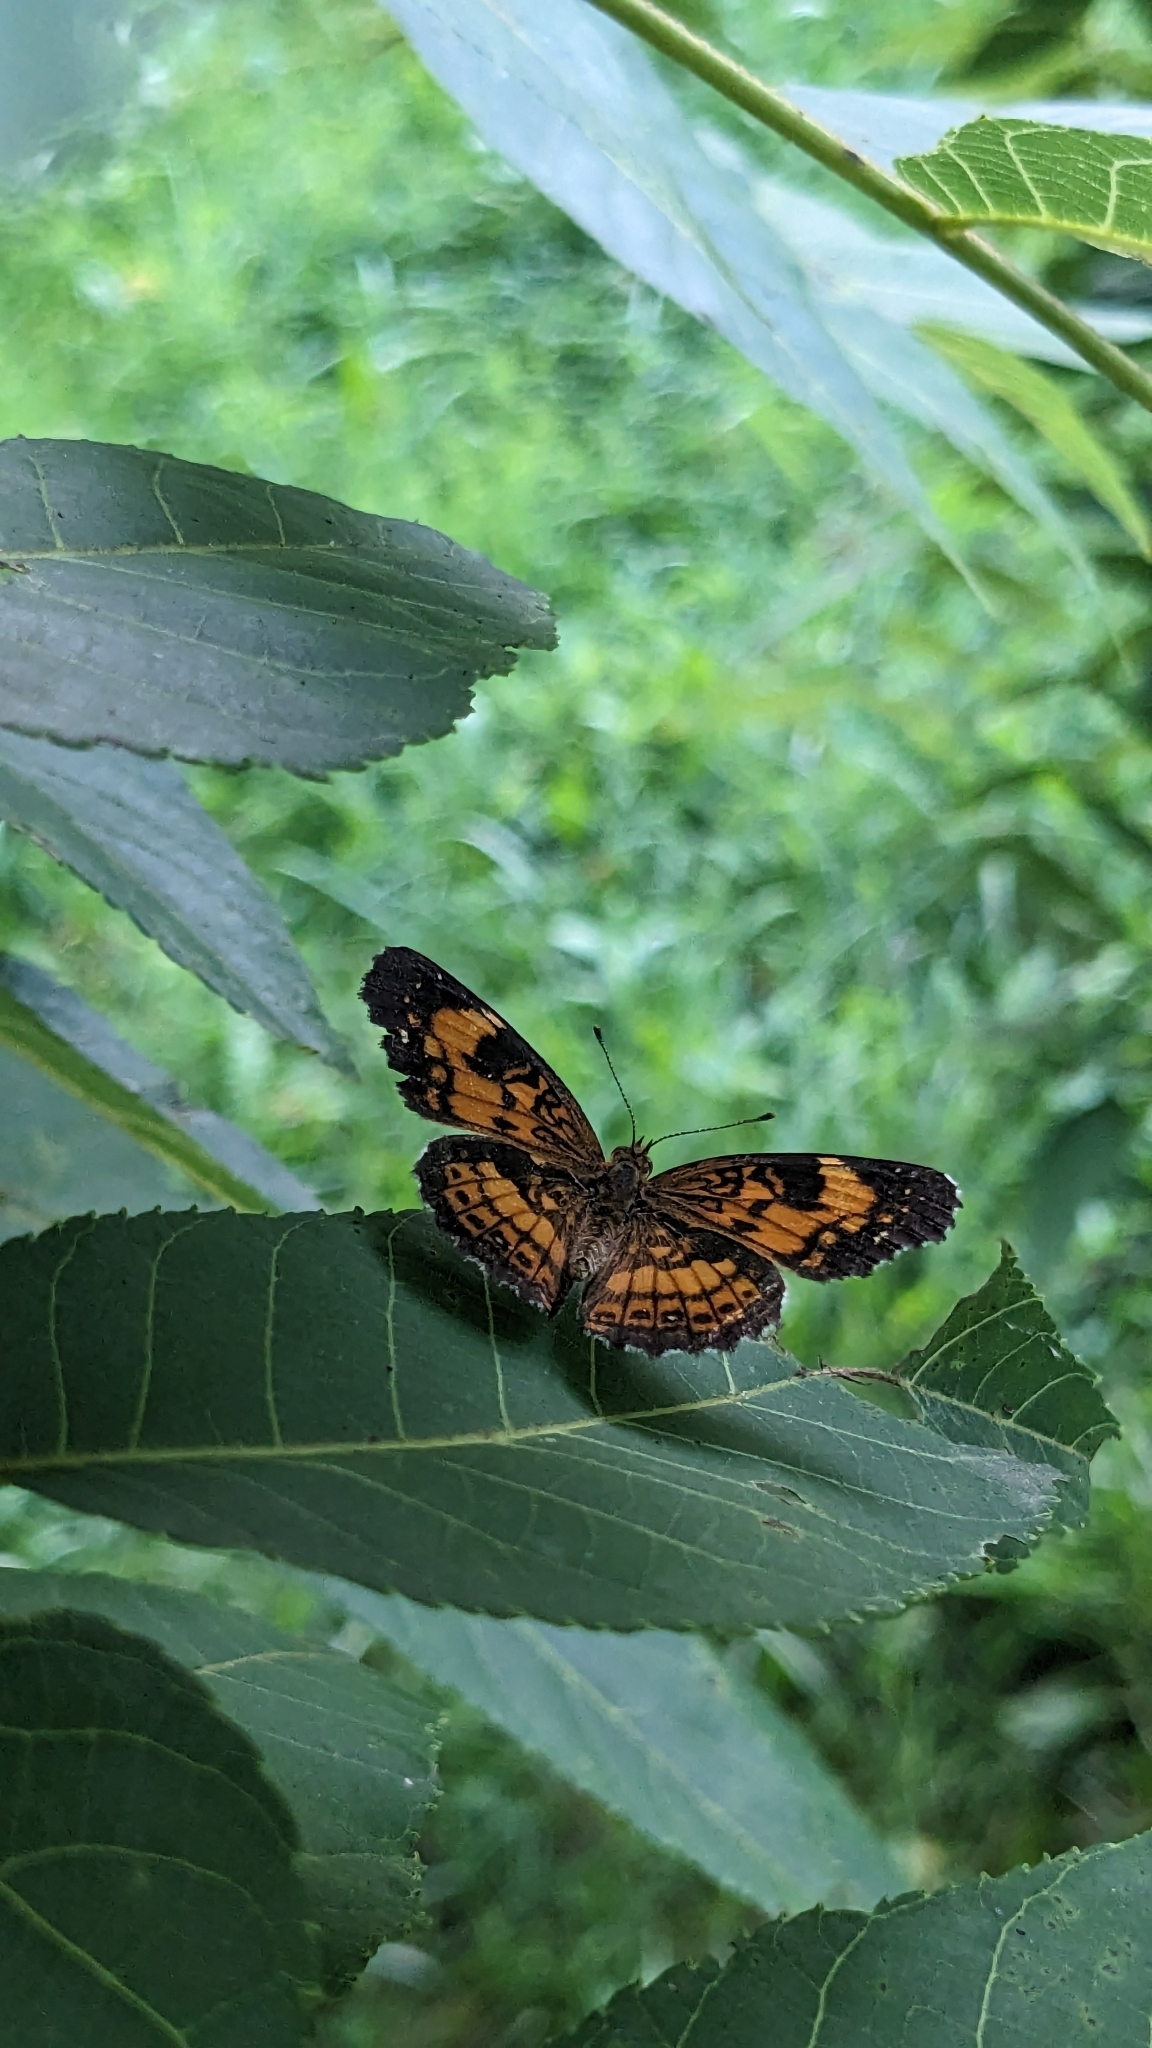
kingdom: Animalia
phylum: Arthropoda
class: Insecta
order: Lepidoptera
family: Nymphalidae
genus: Chlosyne
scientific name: Chlosyne nycteis
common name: Silvery checkerspot
